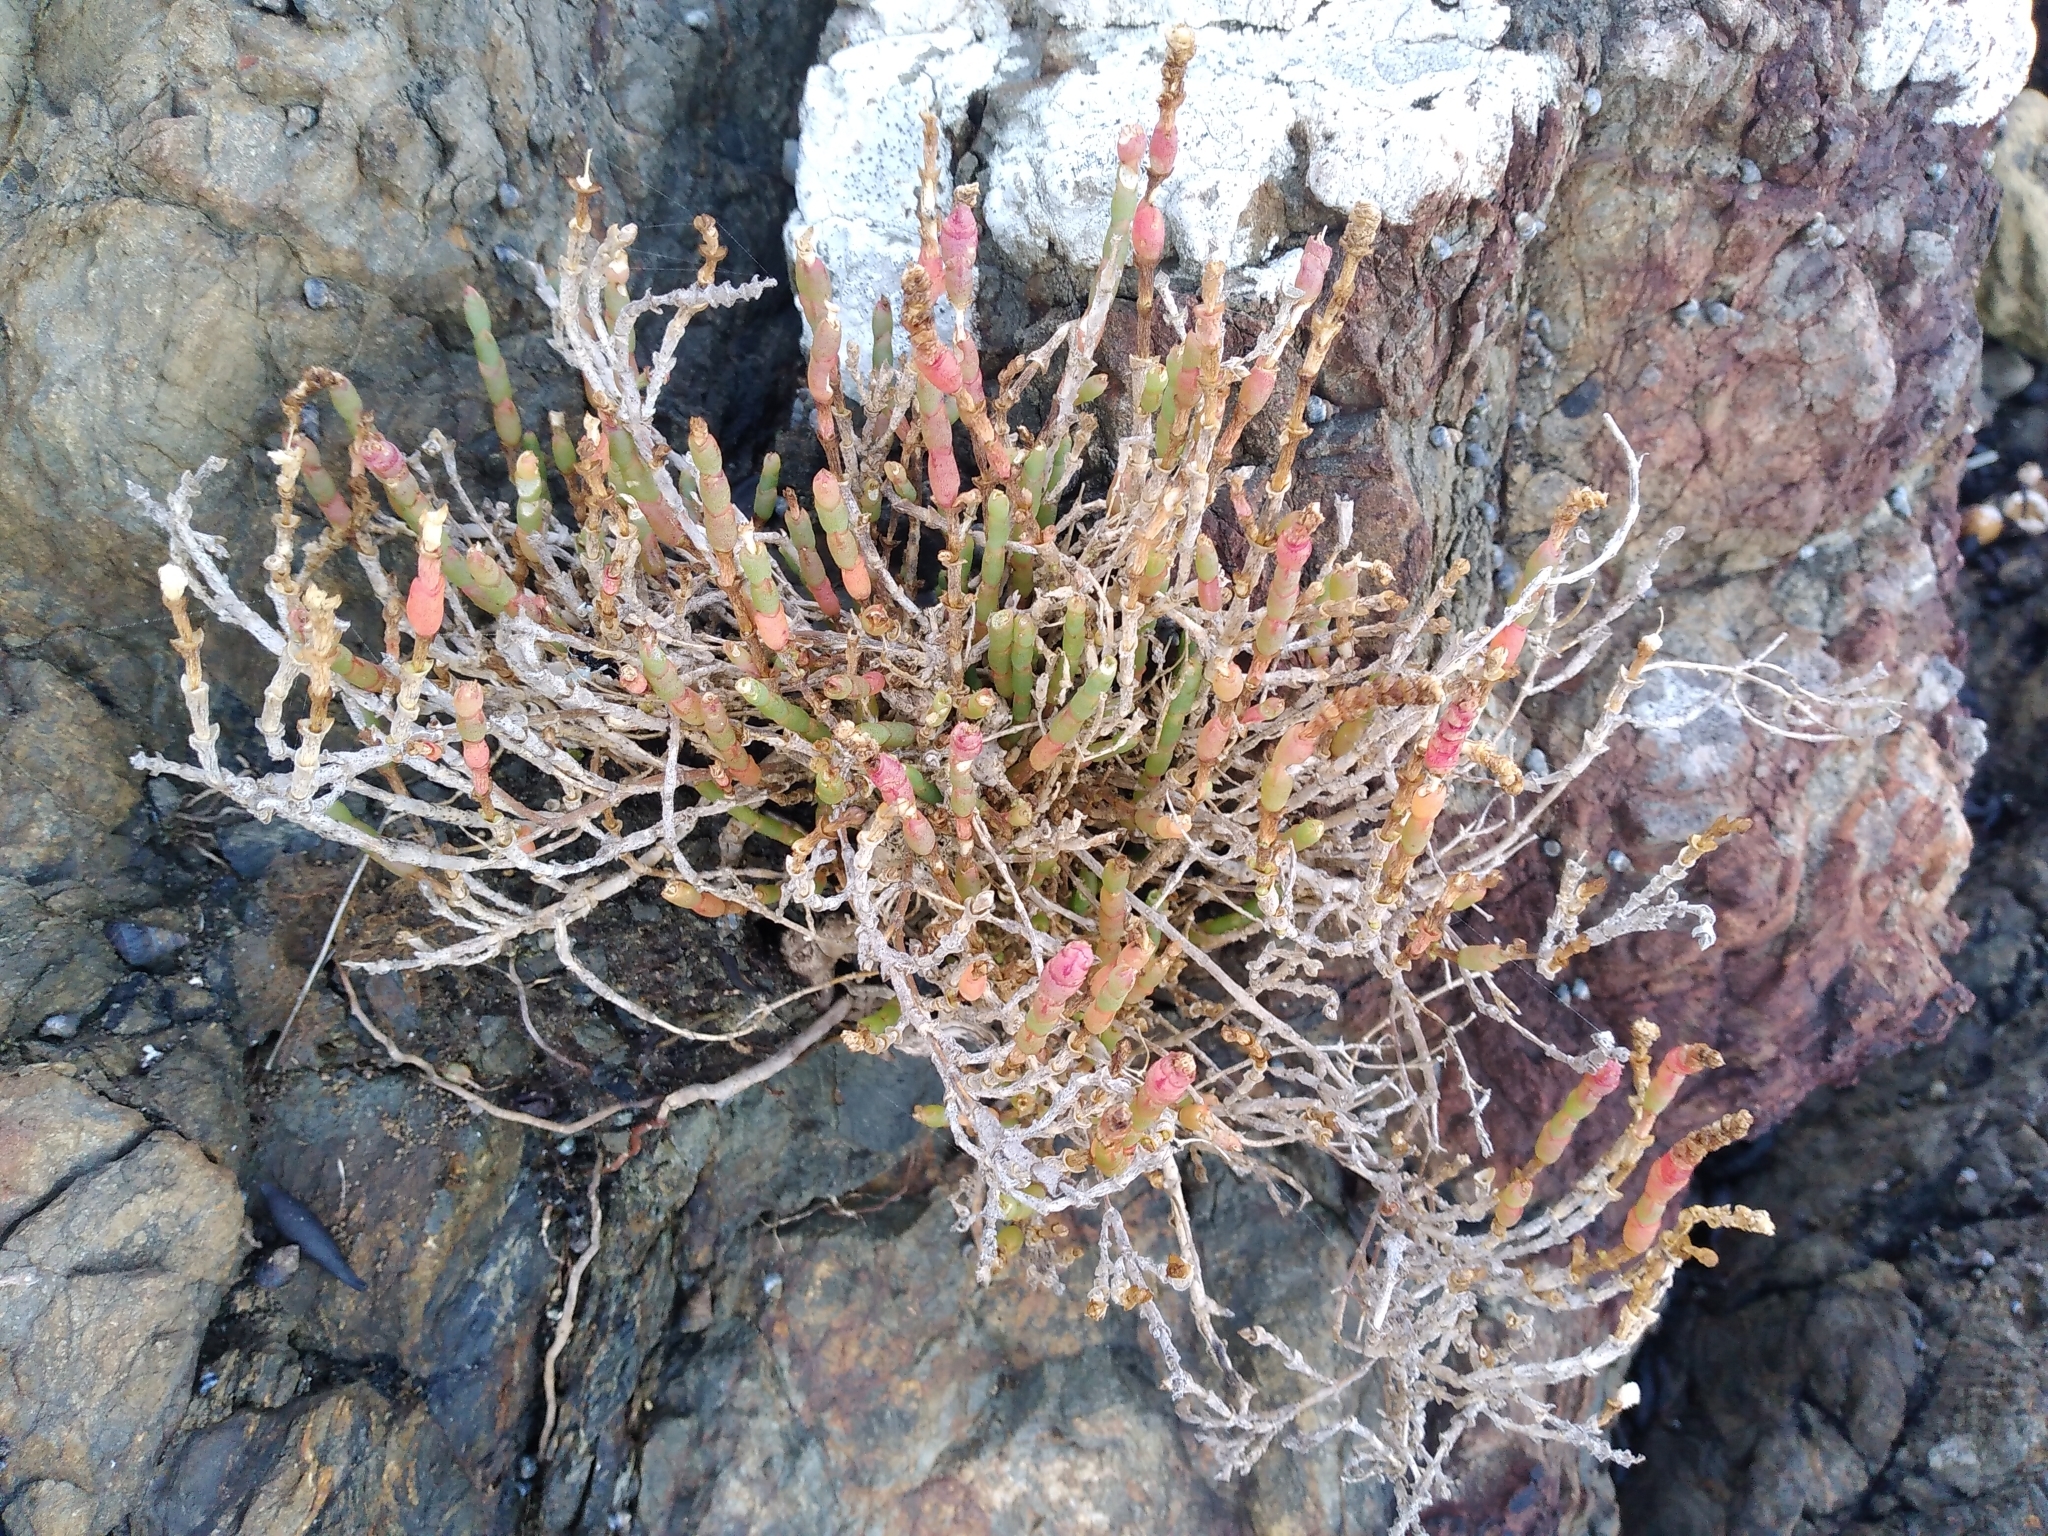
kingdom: Plantae
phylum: Tracheophyta
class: Magnoliopsida
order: Caryophyllales
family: Amaranthaceae
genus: Salicornia
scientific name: Salicornia quinqueflora
